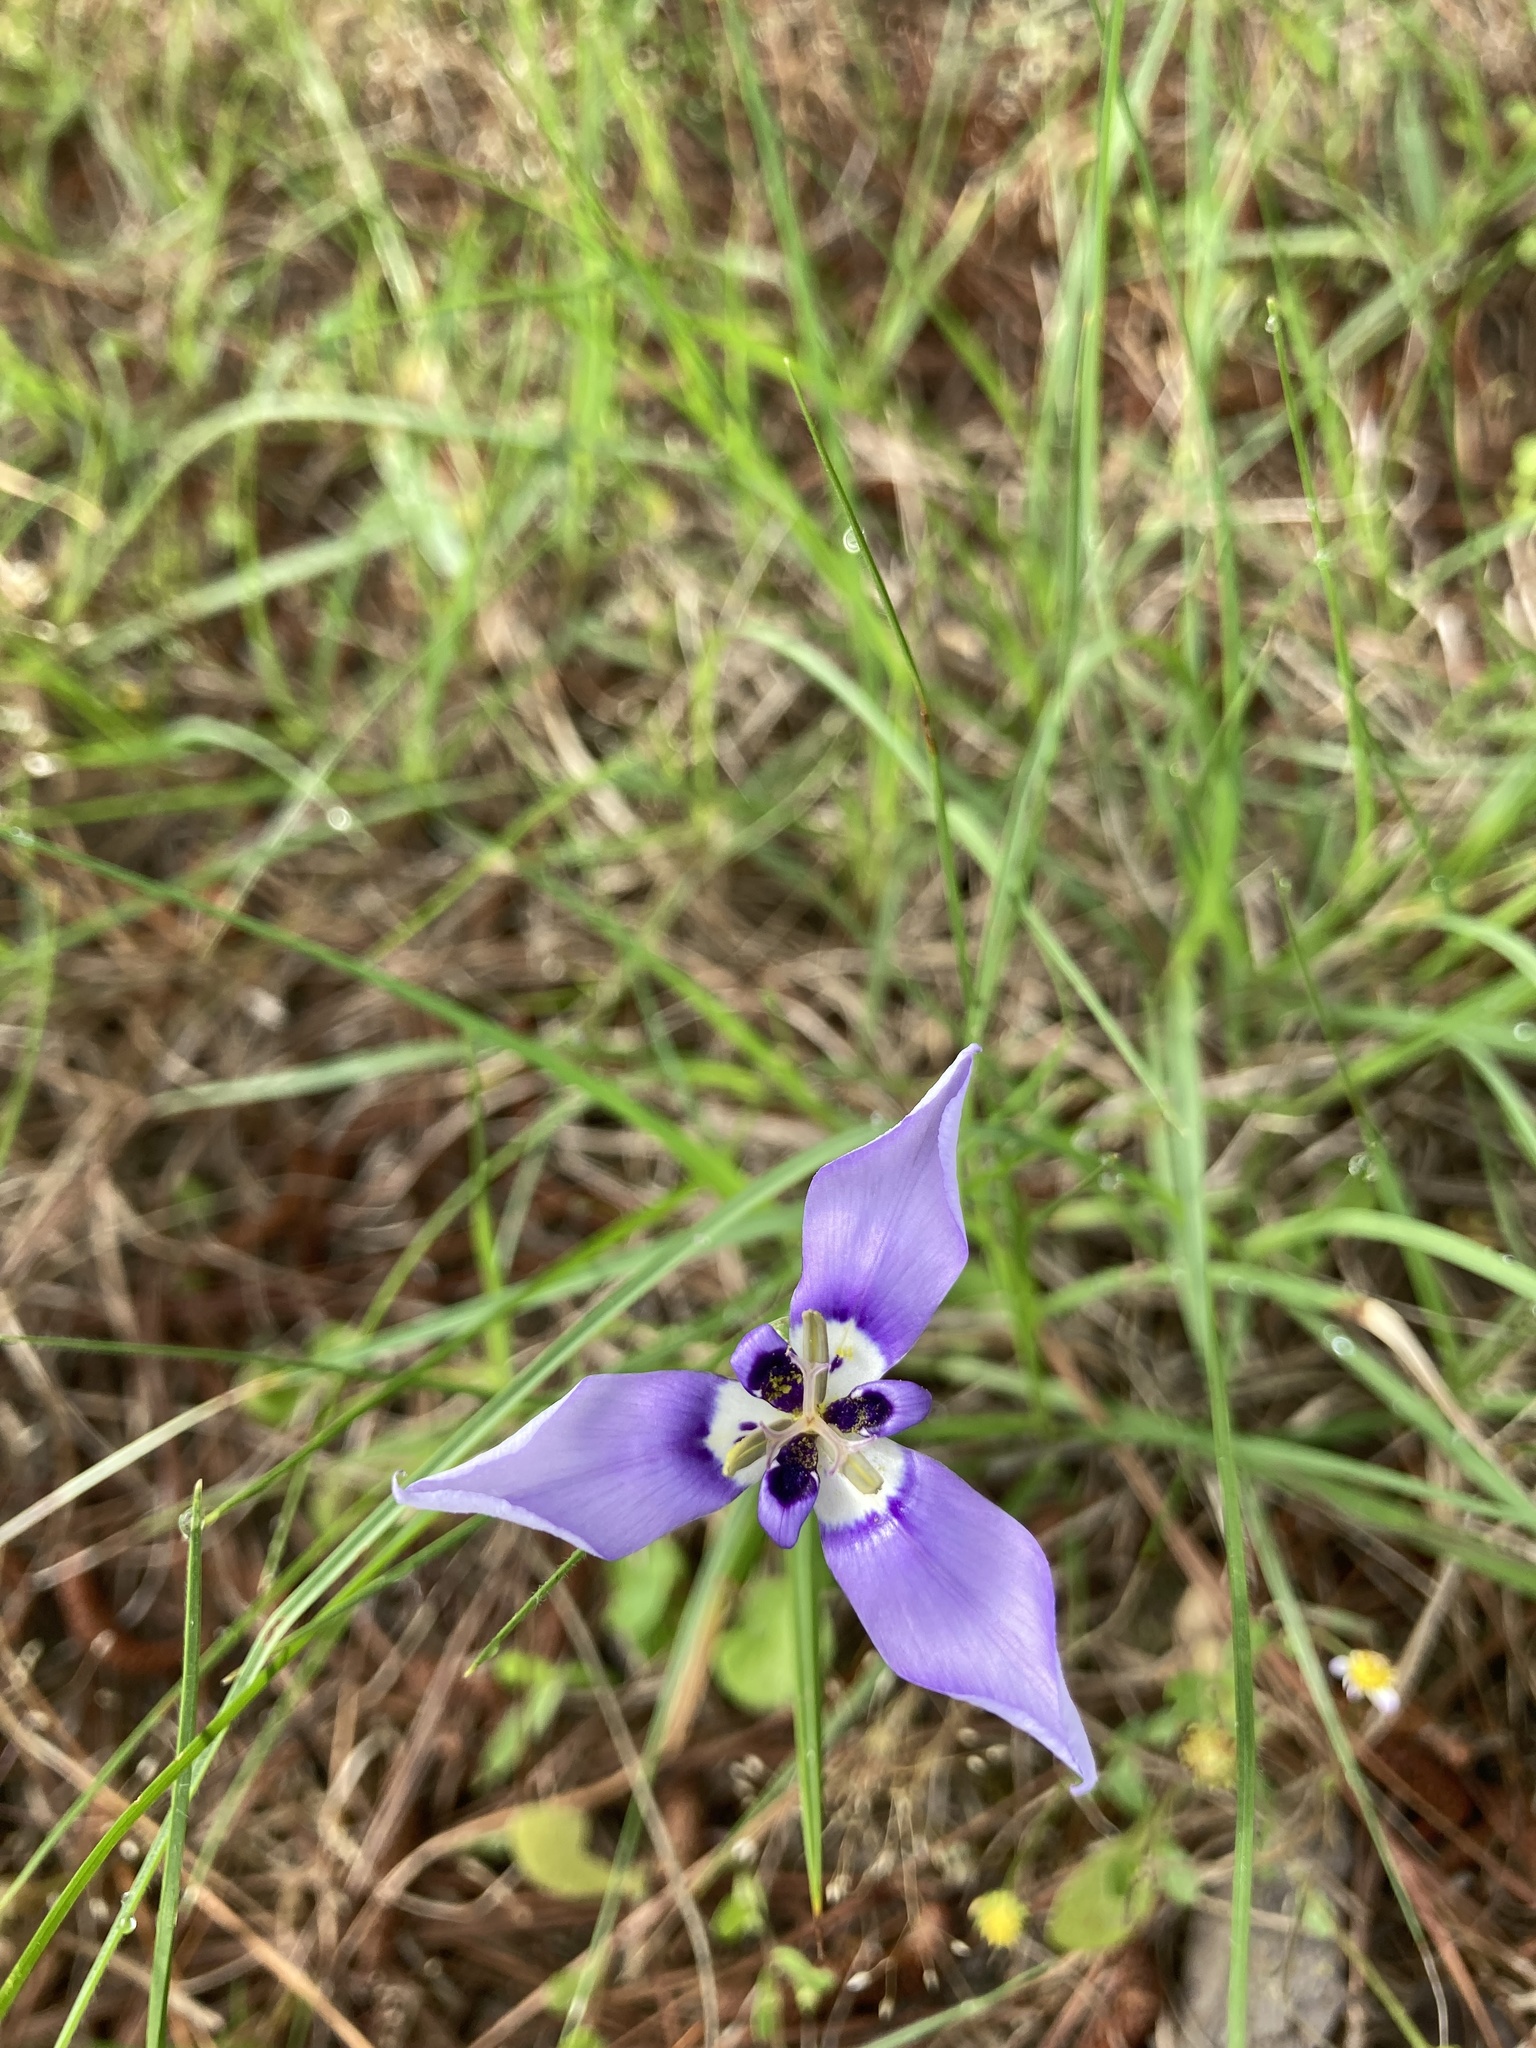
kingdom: Plantae
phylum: Tracheophyta
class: Liliopsida
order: Asparagales
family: Iridaceae
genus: Herbertia
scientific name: Herbertia lahue
